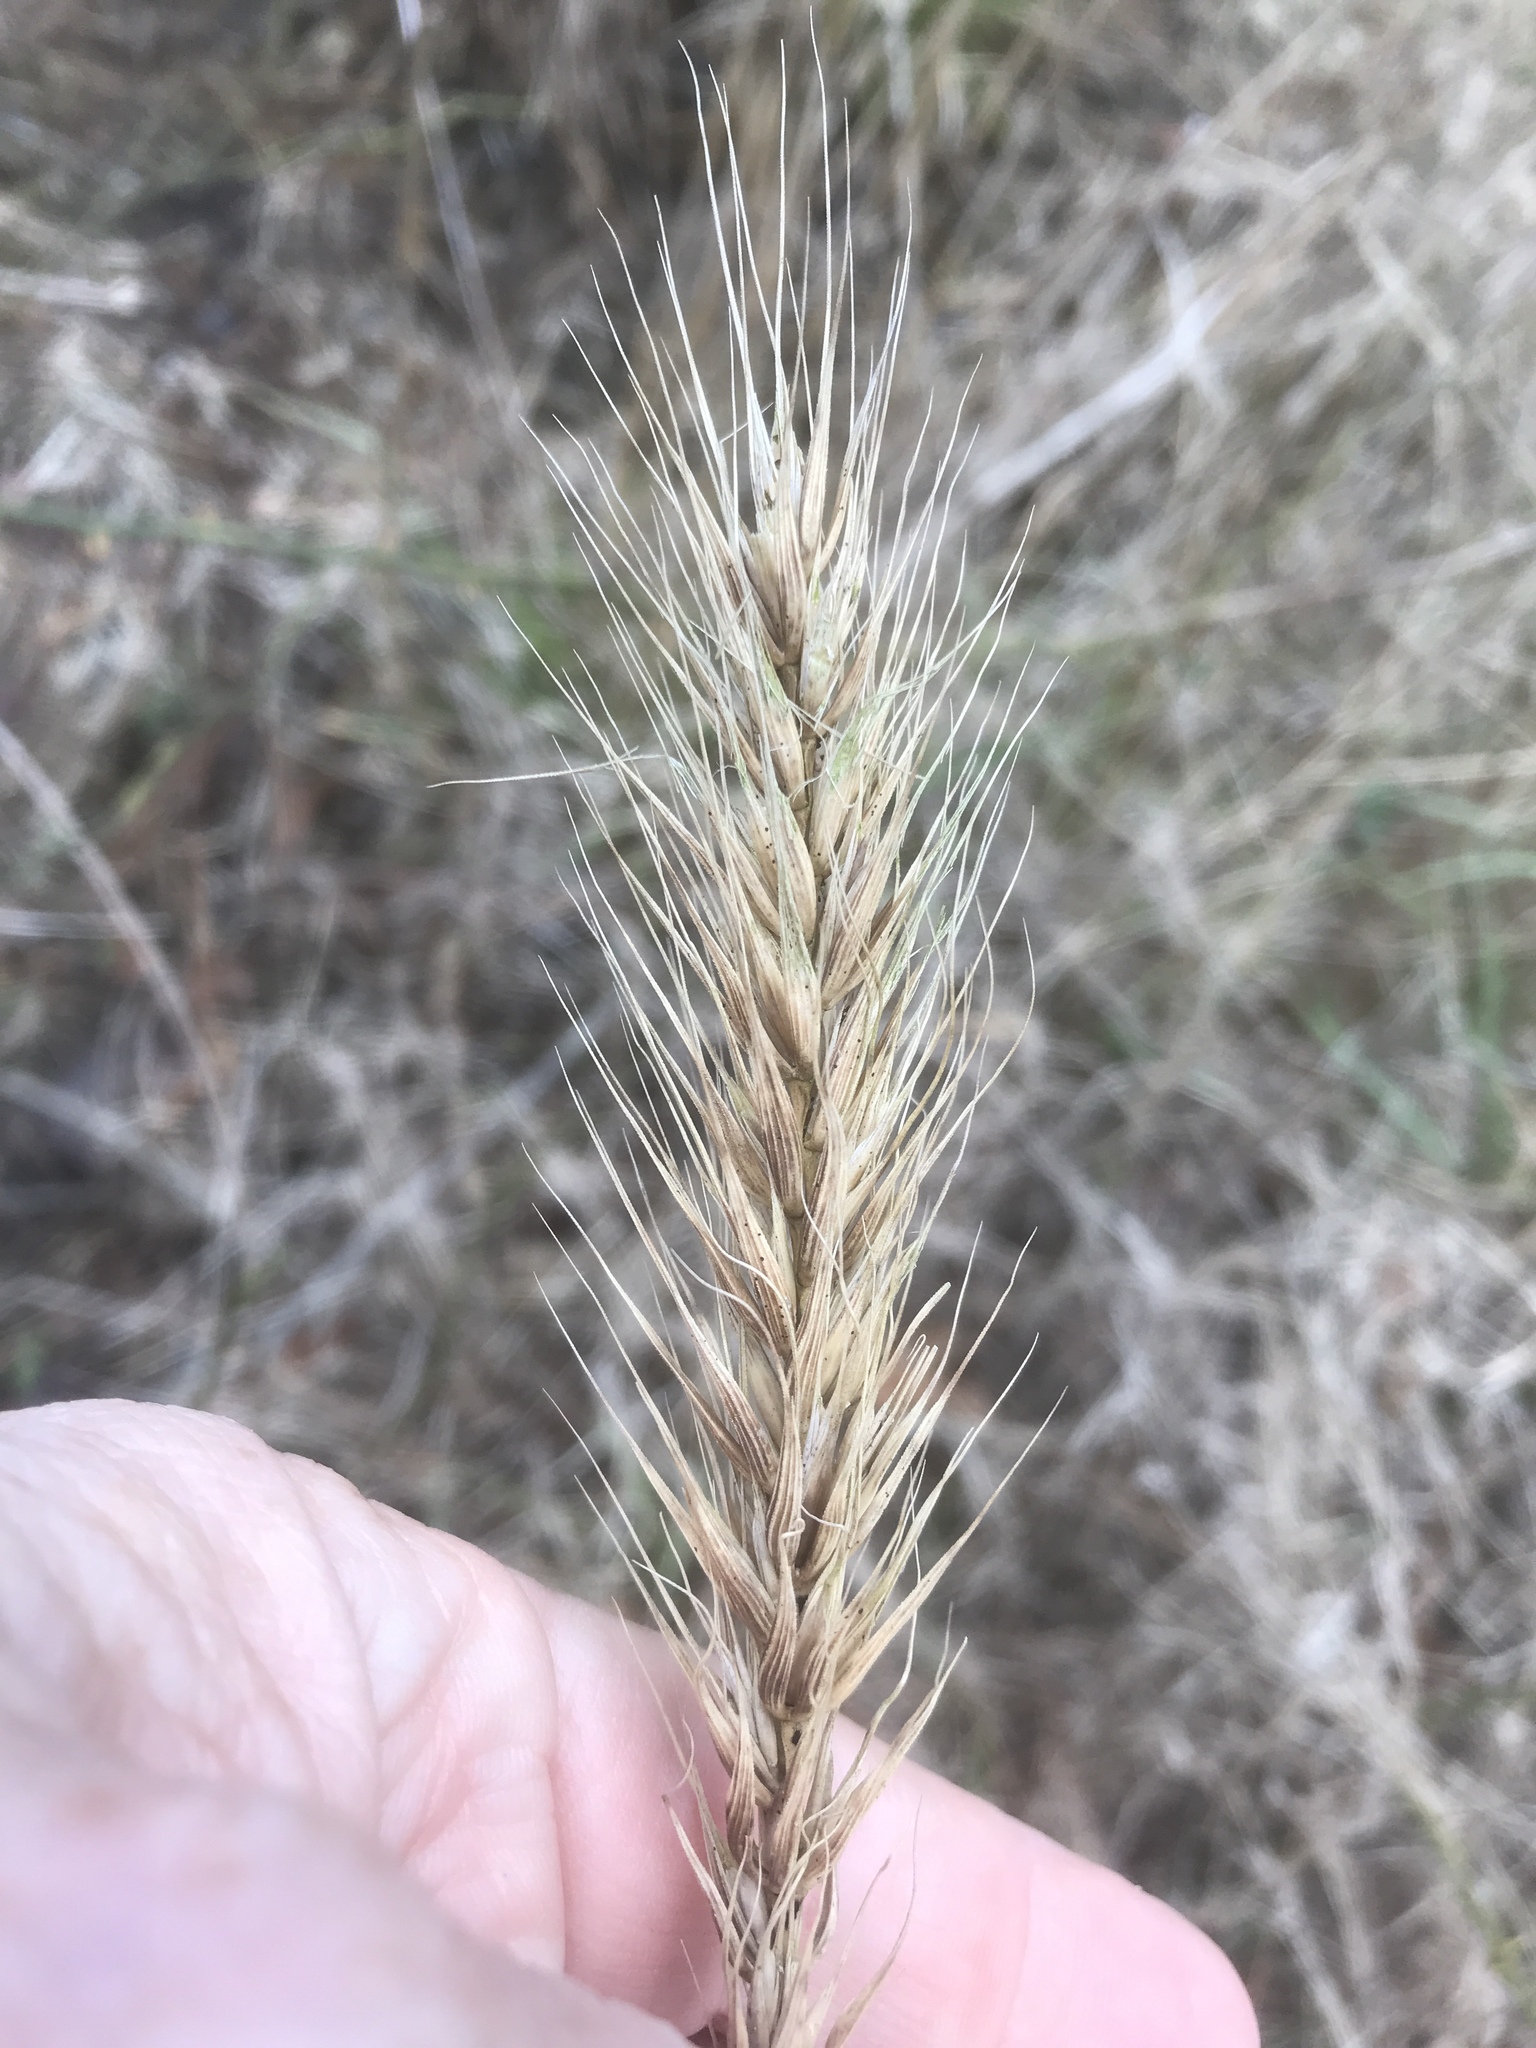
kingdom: Plantae
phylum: Tracheophyta
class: Liliopsida
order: Poales
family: Poaceae
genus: Elymus
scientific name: Elymus virginicus
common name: Common eastern wildrye
